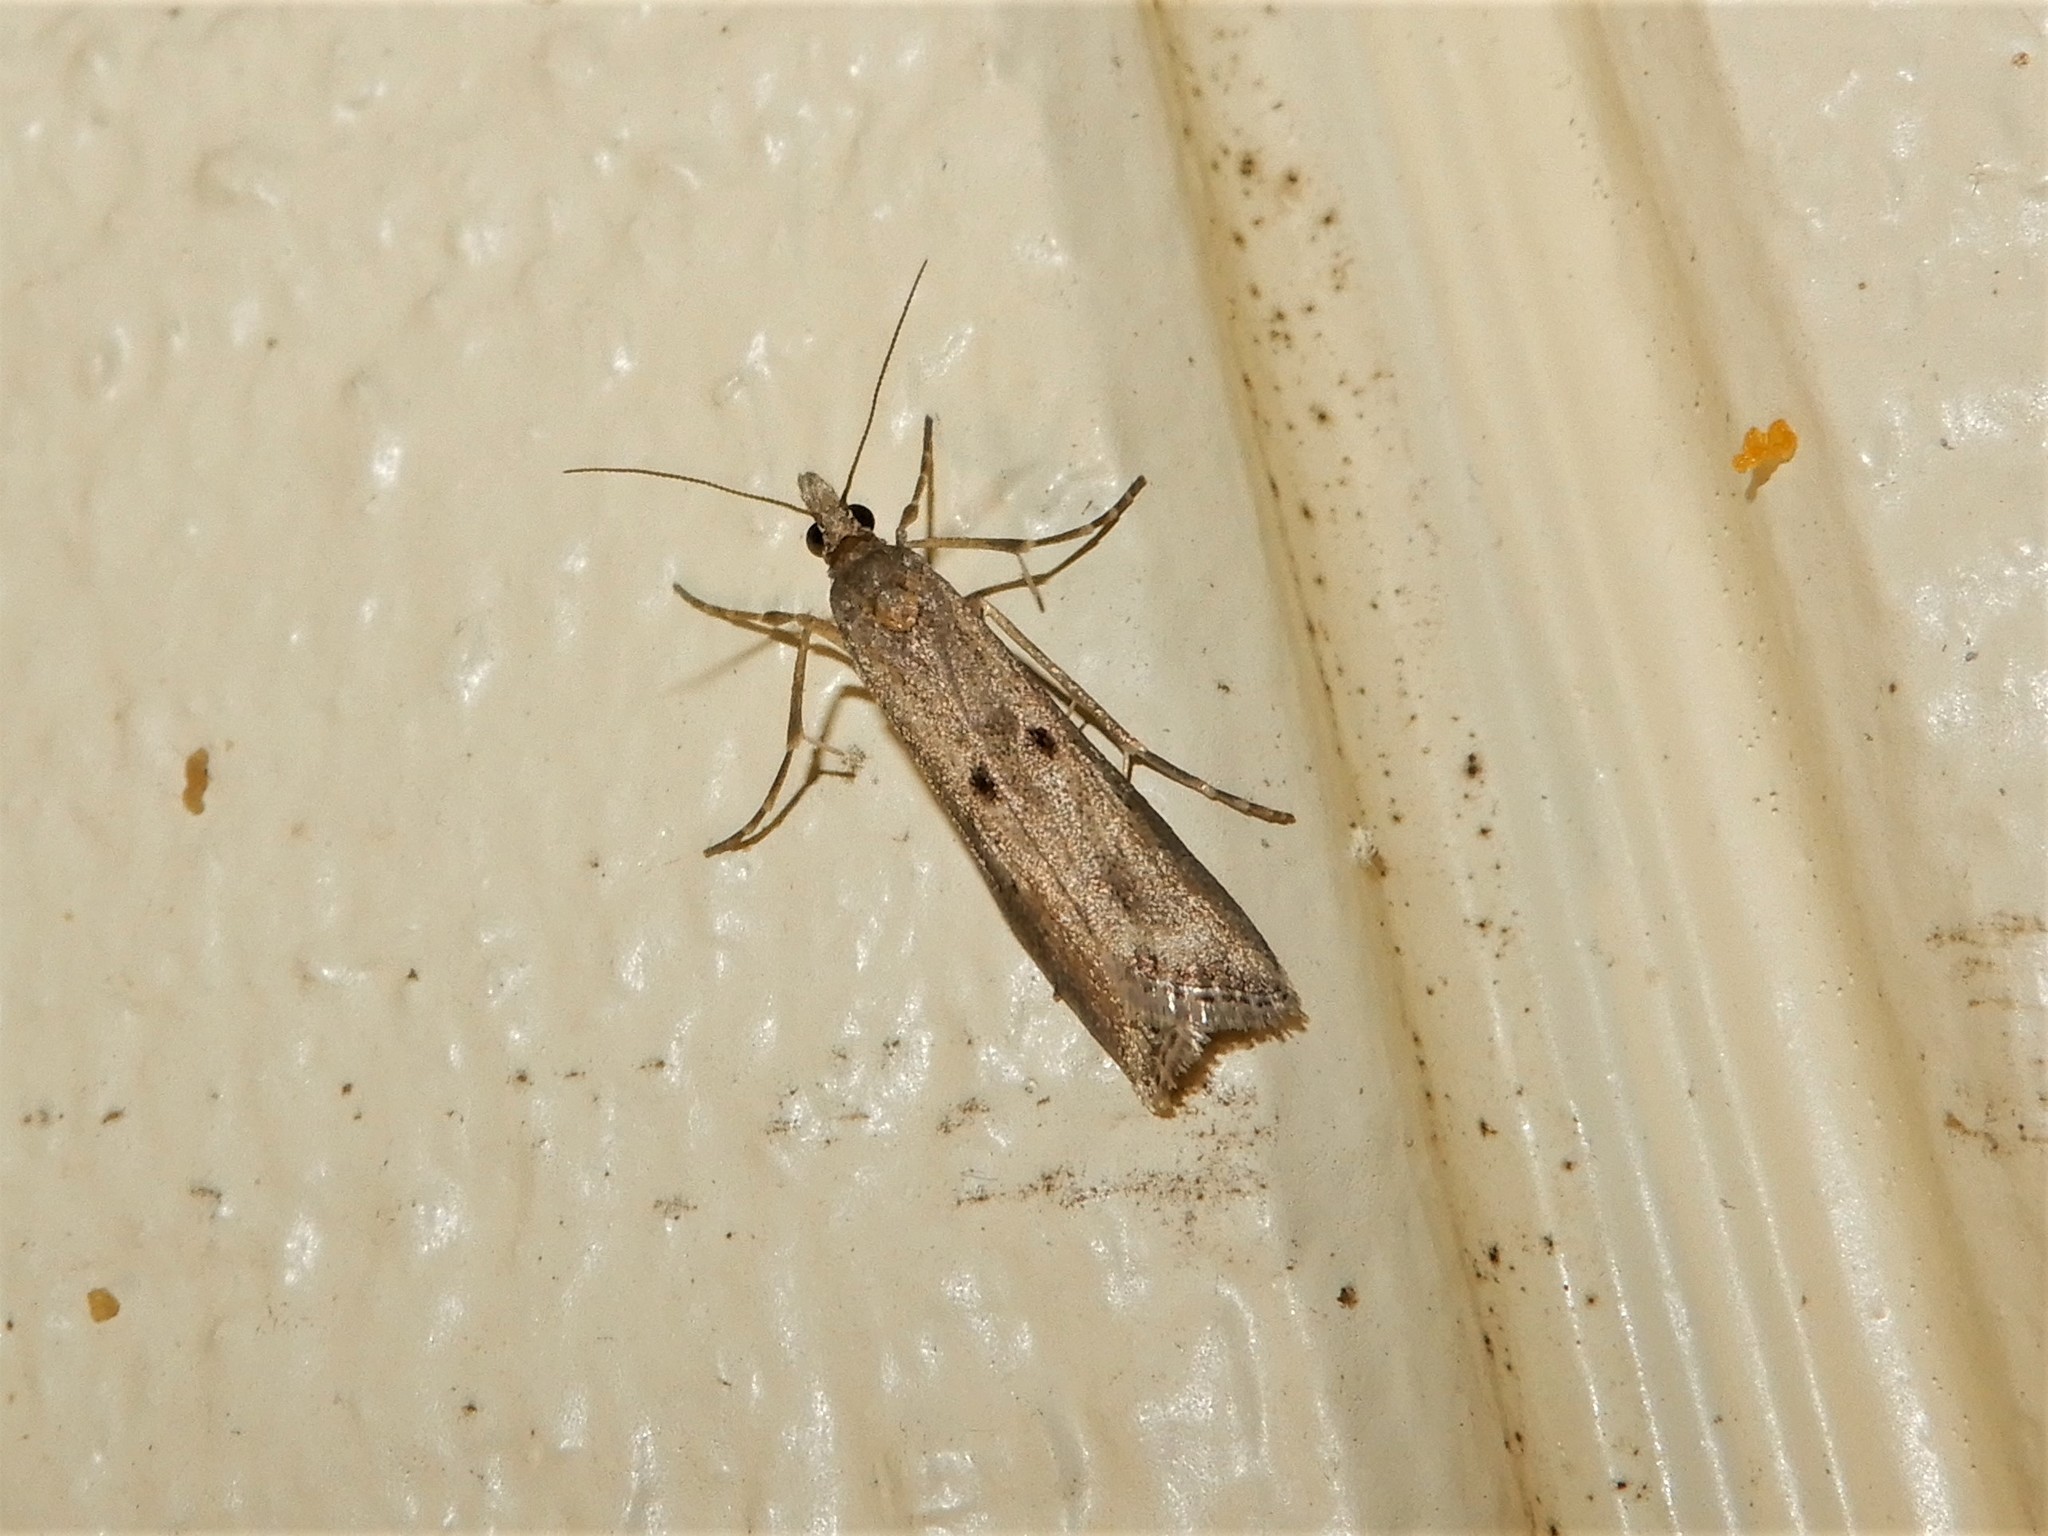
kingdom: Animalia
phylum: Arthropoda
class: Insecta
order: Lepidoptera
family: Crambidae
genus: Eudonia
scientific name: Eudonia leptalea
